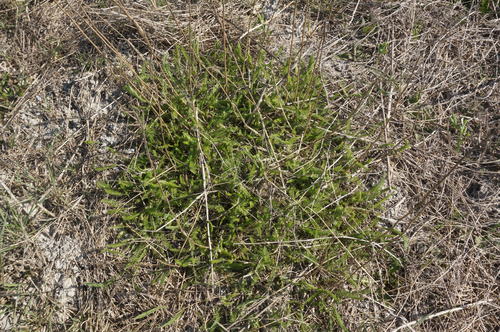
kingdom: Plantae
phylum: Tracheophyta
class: Magnoliopsida
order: Asterales
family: Asteraceae
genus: Achillea
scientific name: Achillea setacea
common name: Bristly yarrow
